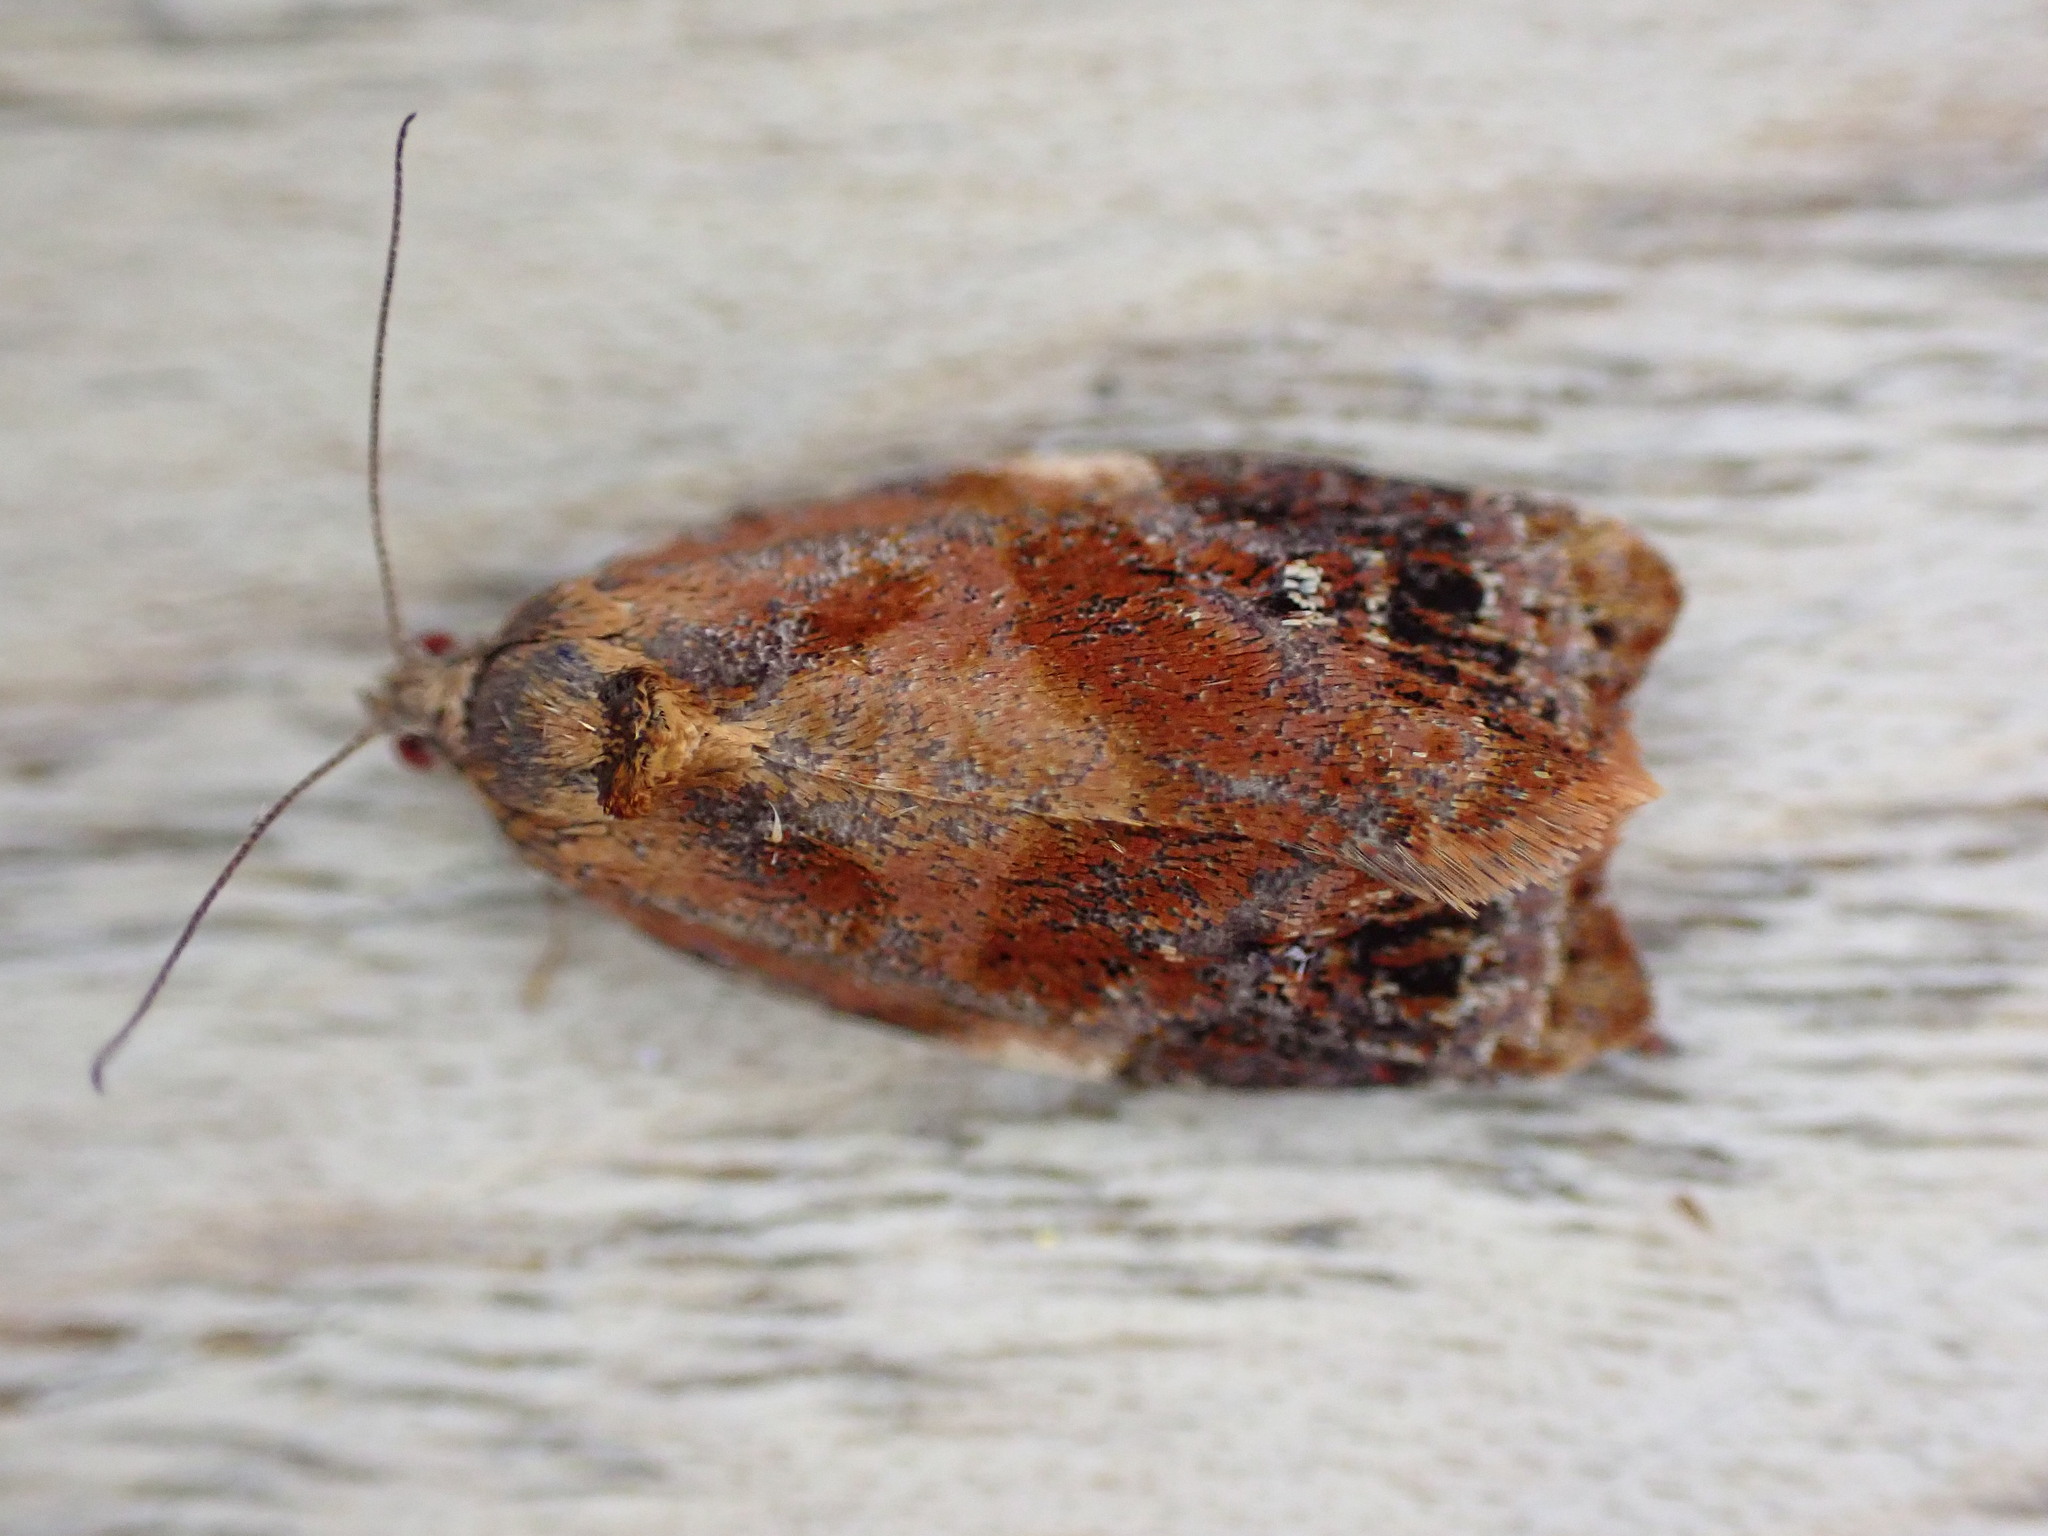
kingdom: Animalia
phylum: Arthropoda
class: Insecta
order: Lepidoptera
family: Tortricidae
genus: Ditula
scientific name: Ditula angustiorana
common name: Red-barred tortrix
